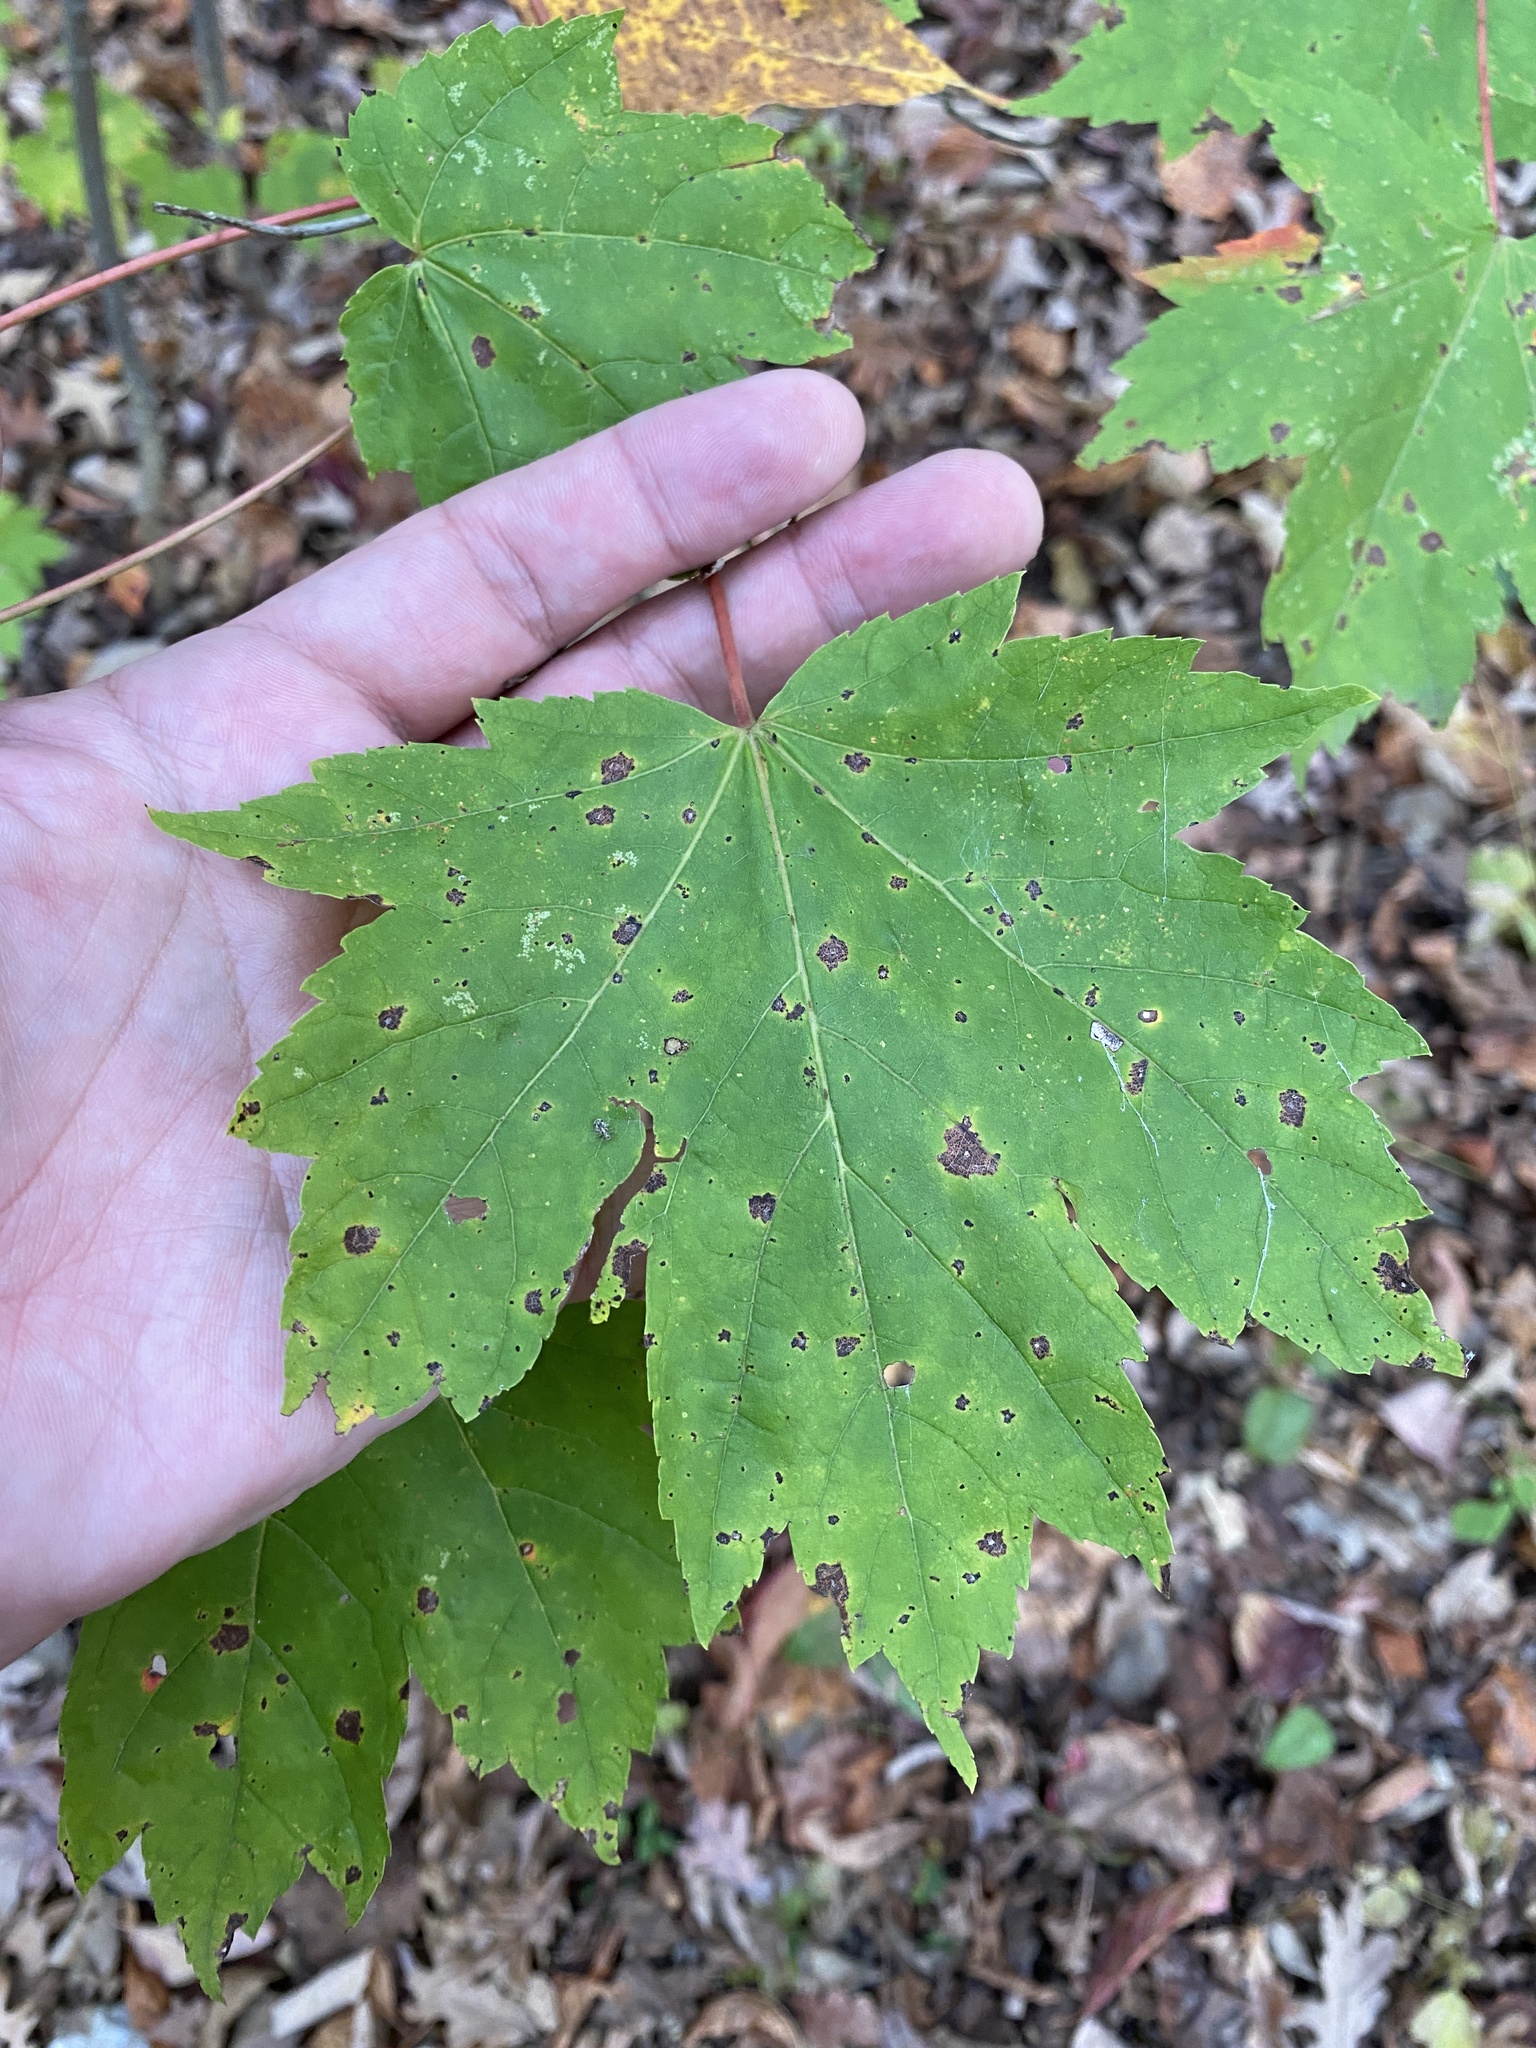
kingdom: Plantae
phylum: Tracheophyta
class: Magnoliopsida
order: Sapindales
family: Sapindaceae
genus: Acer
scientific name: Acer rubrum
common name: Red maple
